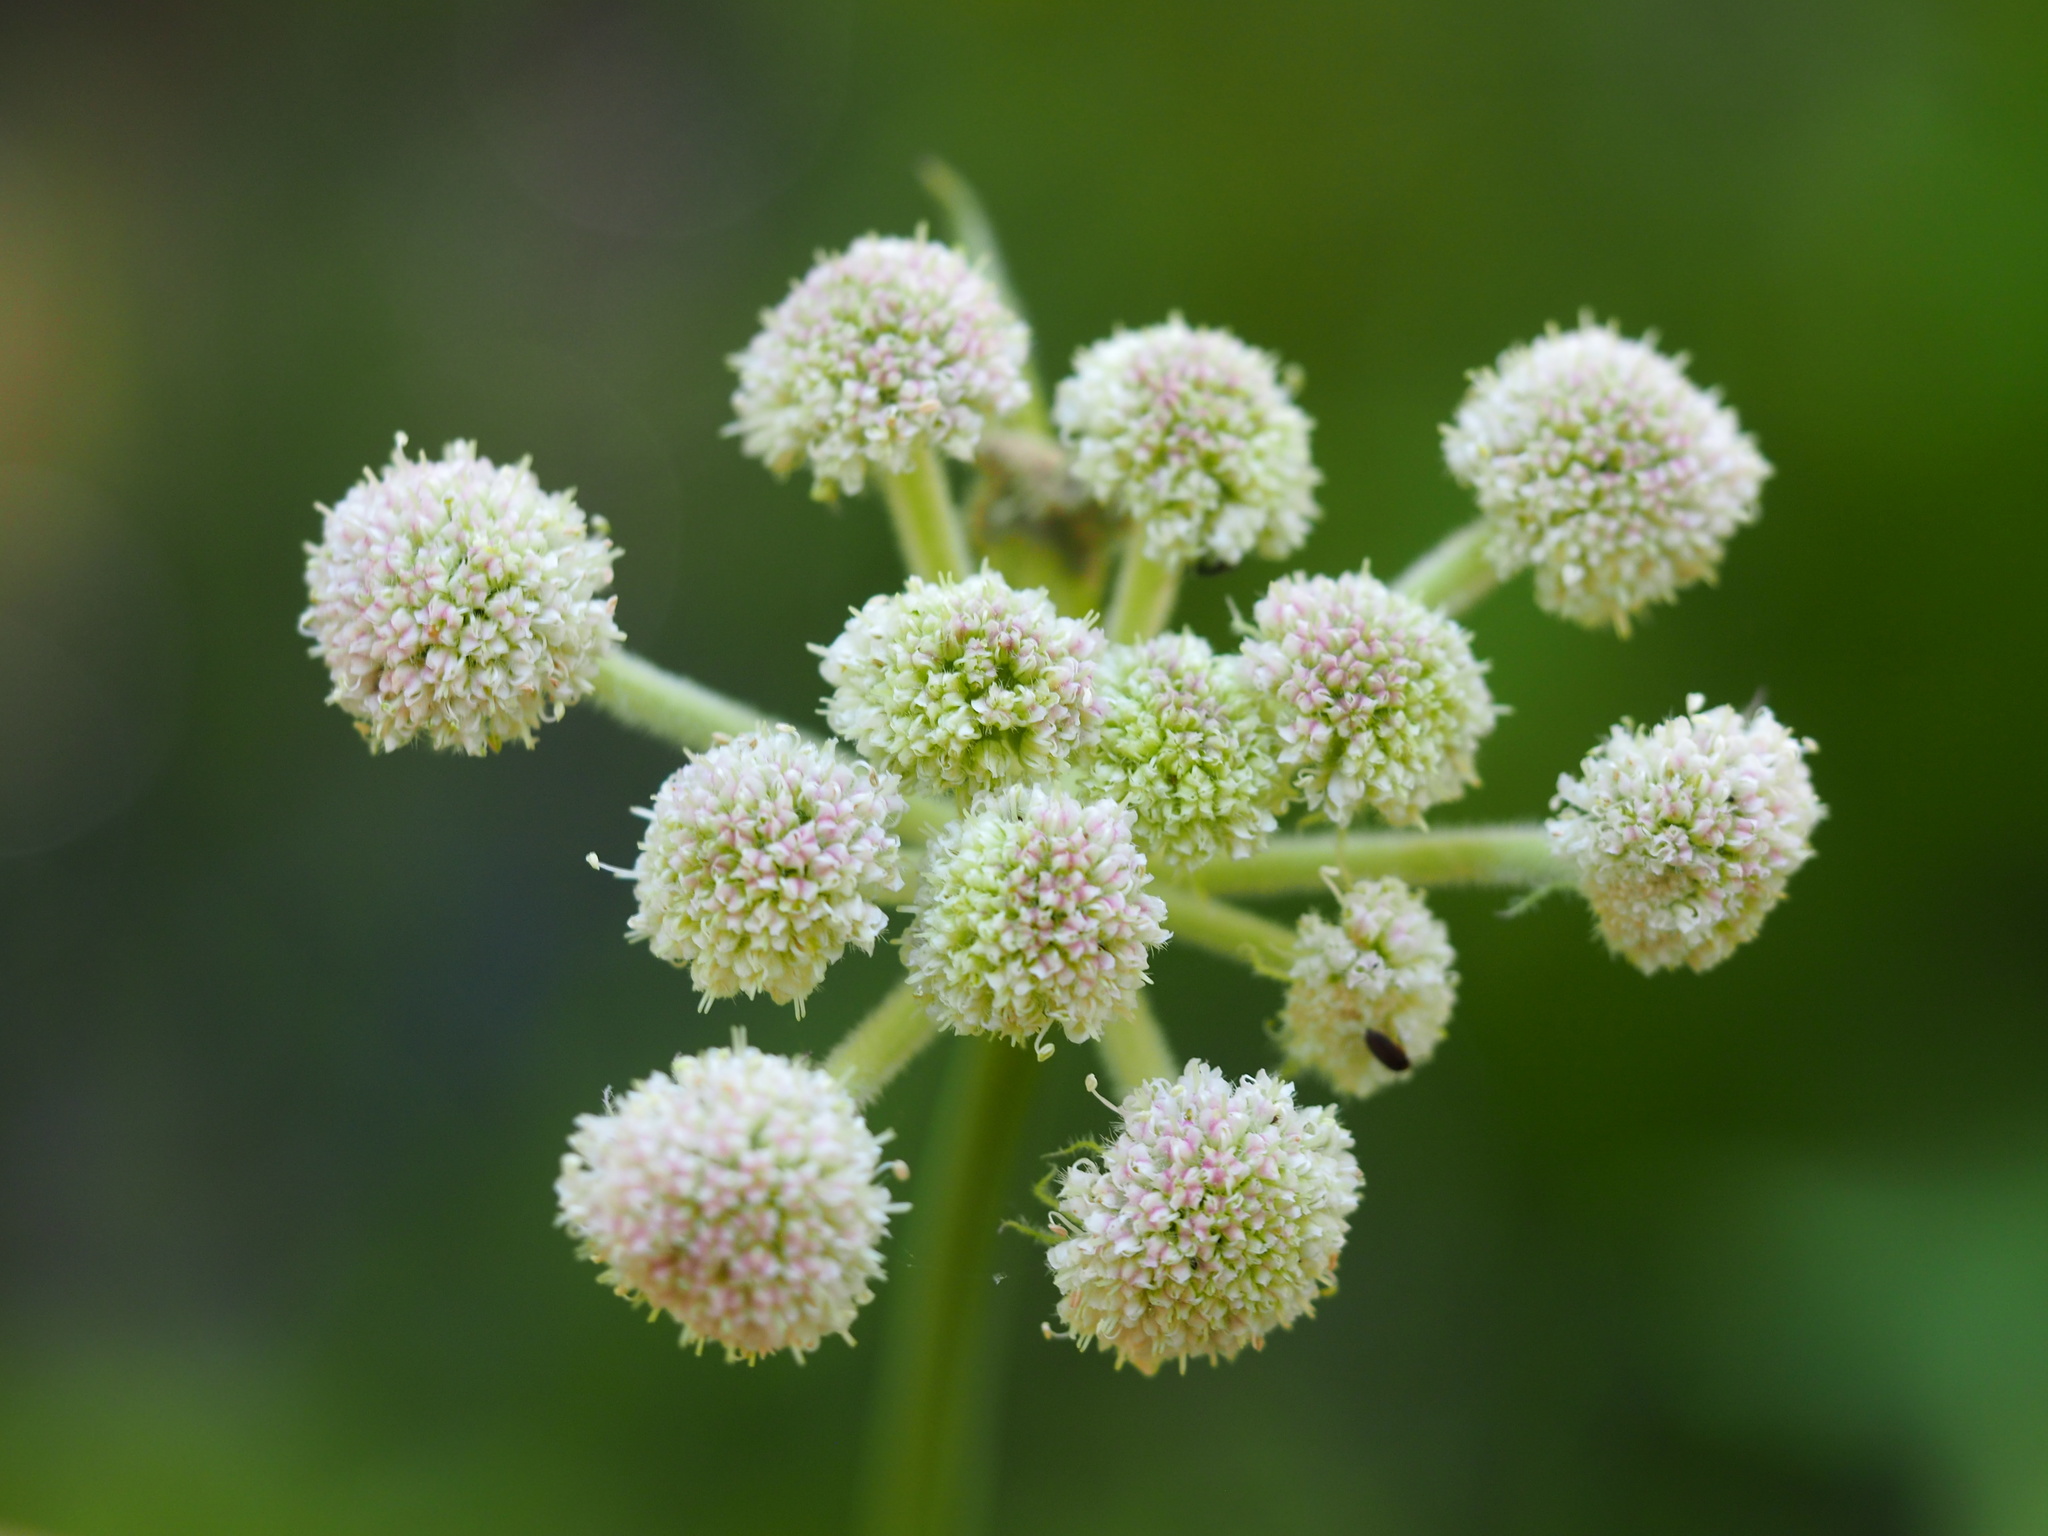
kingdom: Plantae
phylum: Tracheophyta
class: Magnoliopsida
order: Apiales
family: Apiaceae
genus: Angelica
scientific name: Angelica capitellata
